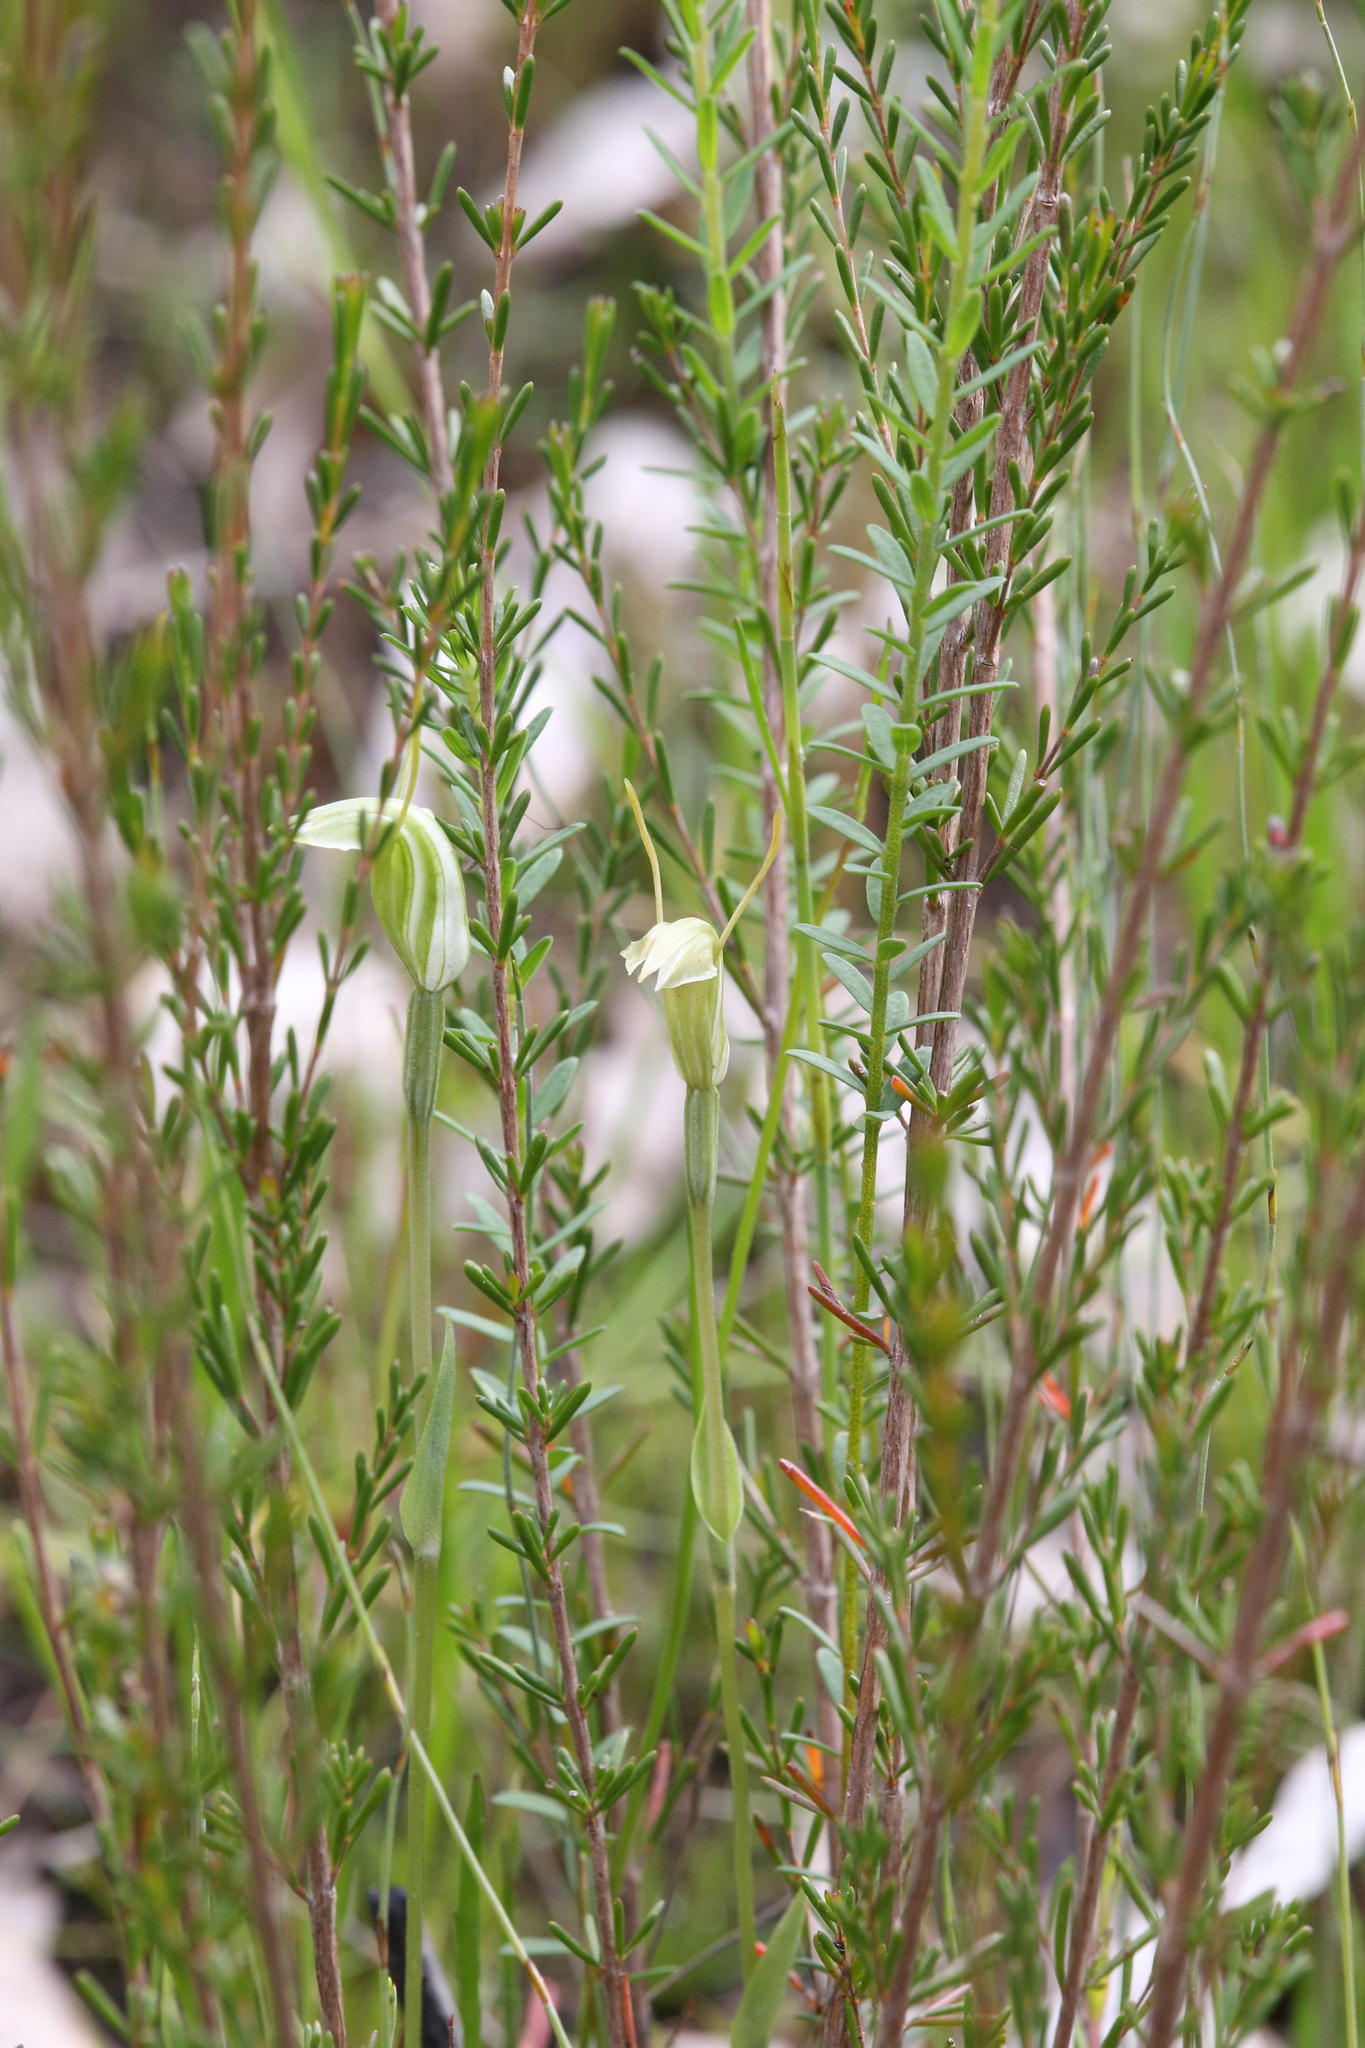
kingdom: Plantae
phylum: Tracheophyta
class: Liliopsida
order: Asparagales
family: Orchidaceae
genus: Pterostylis
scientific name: Pterostylis pyramidalis
